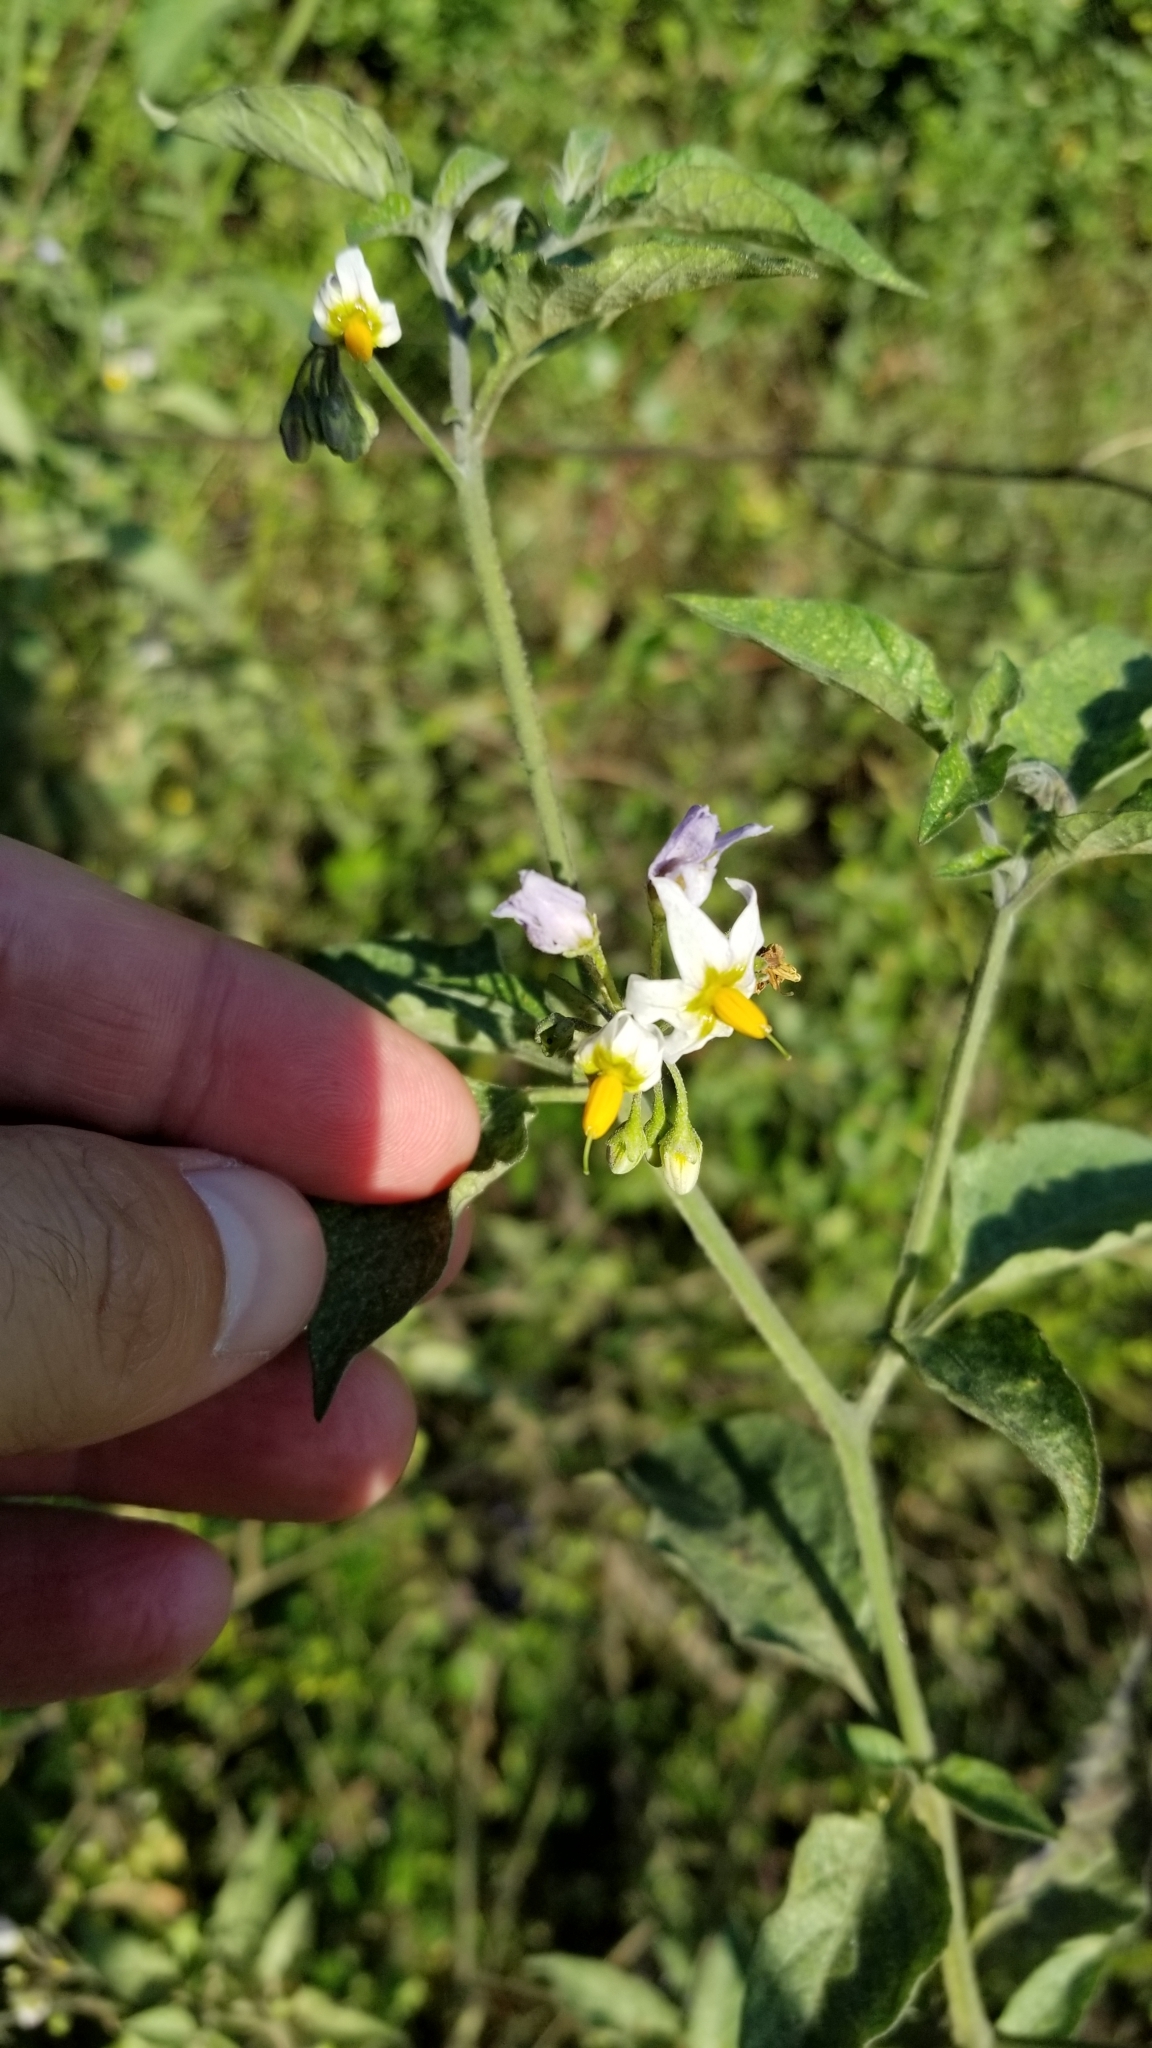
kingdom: Plantae
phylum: Tracheophyta
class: Magnoliopsida
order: Solanales
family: Solanaceae
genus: Solanum
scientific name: Solanum douglasii
